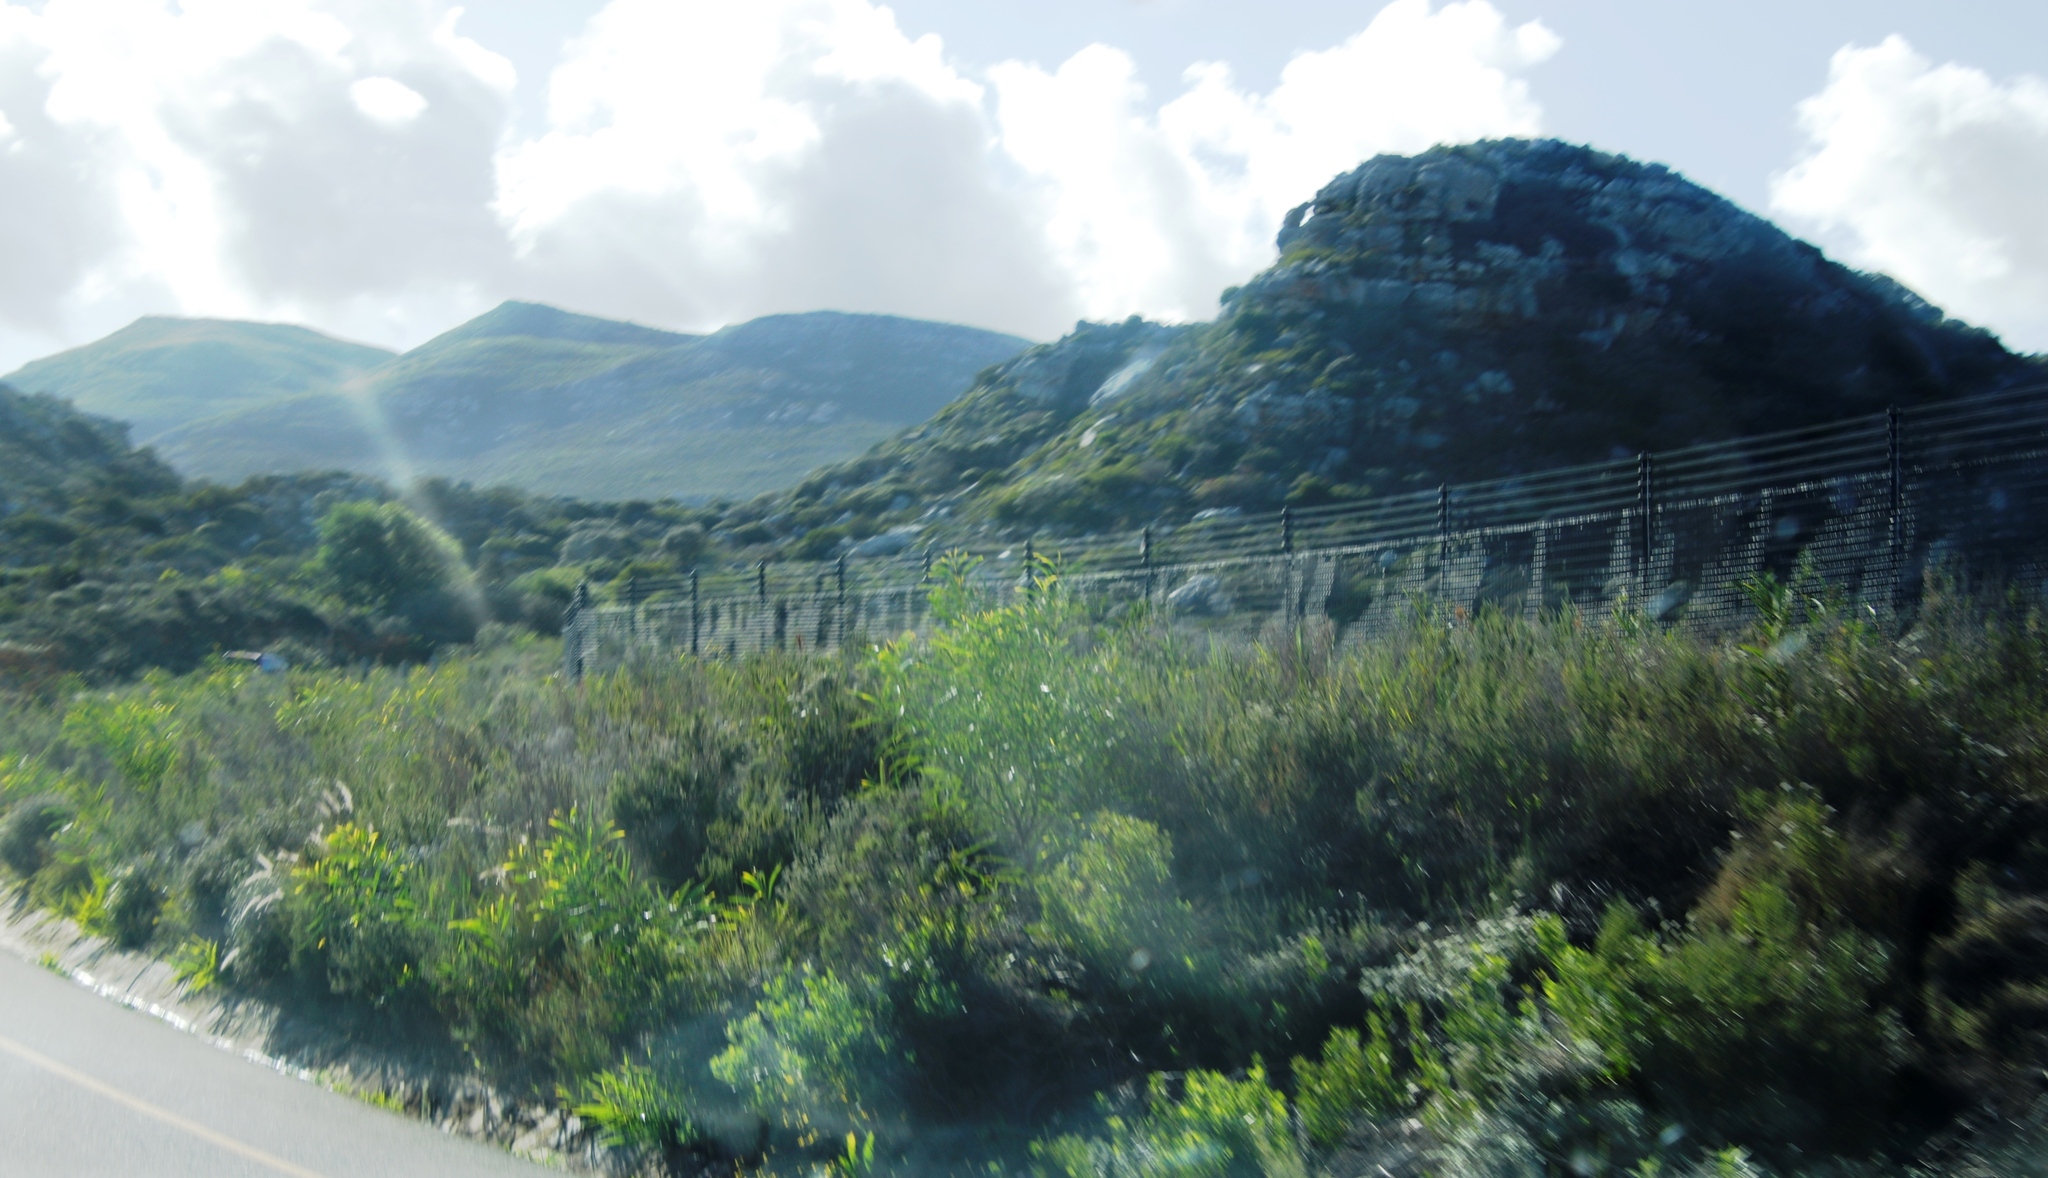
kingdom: Plantae
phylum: Tracheophyta
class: Magnoliopsida
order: Fabales
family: Fabaceae
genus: Acacia
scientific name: Acacia saligna
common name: Orange wattle
